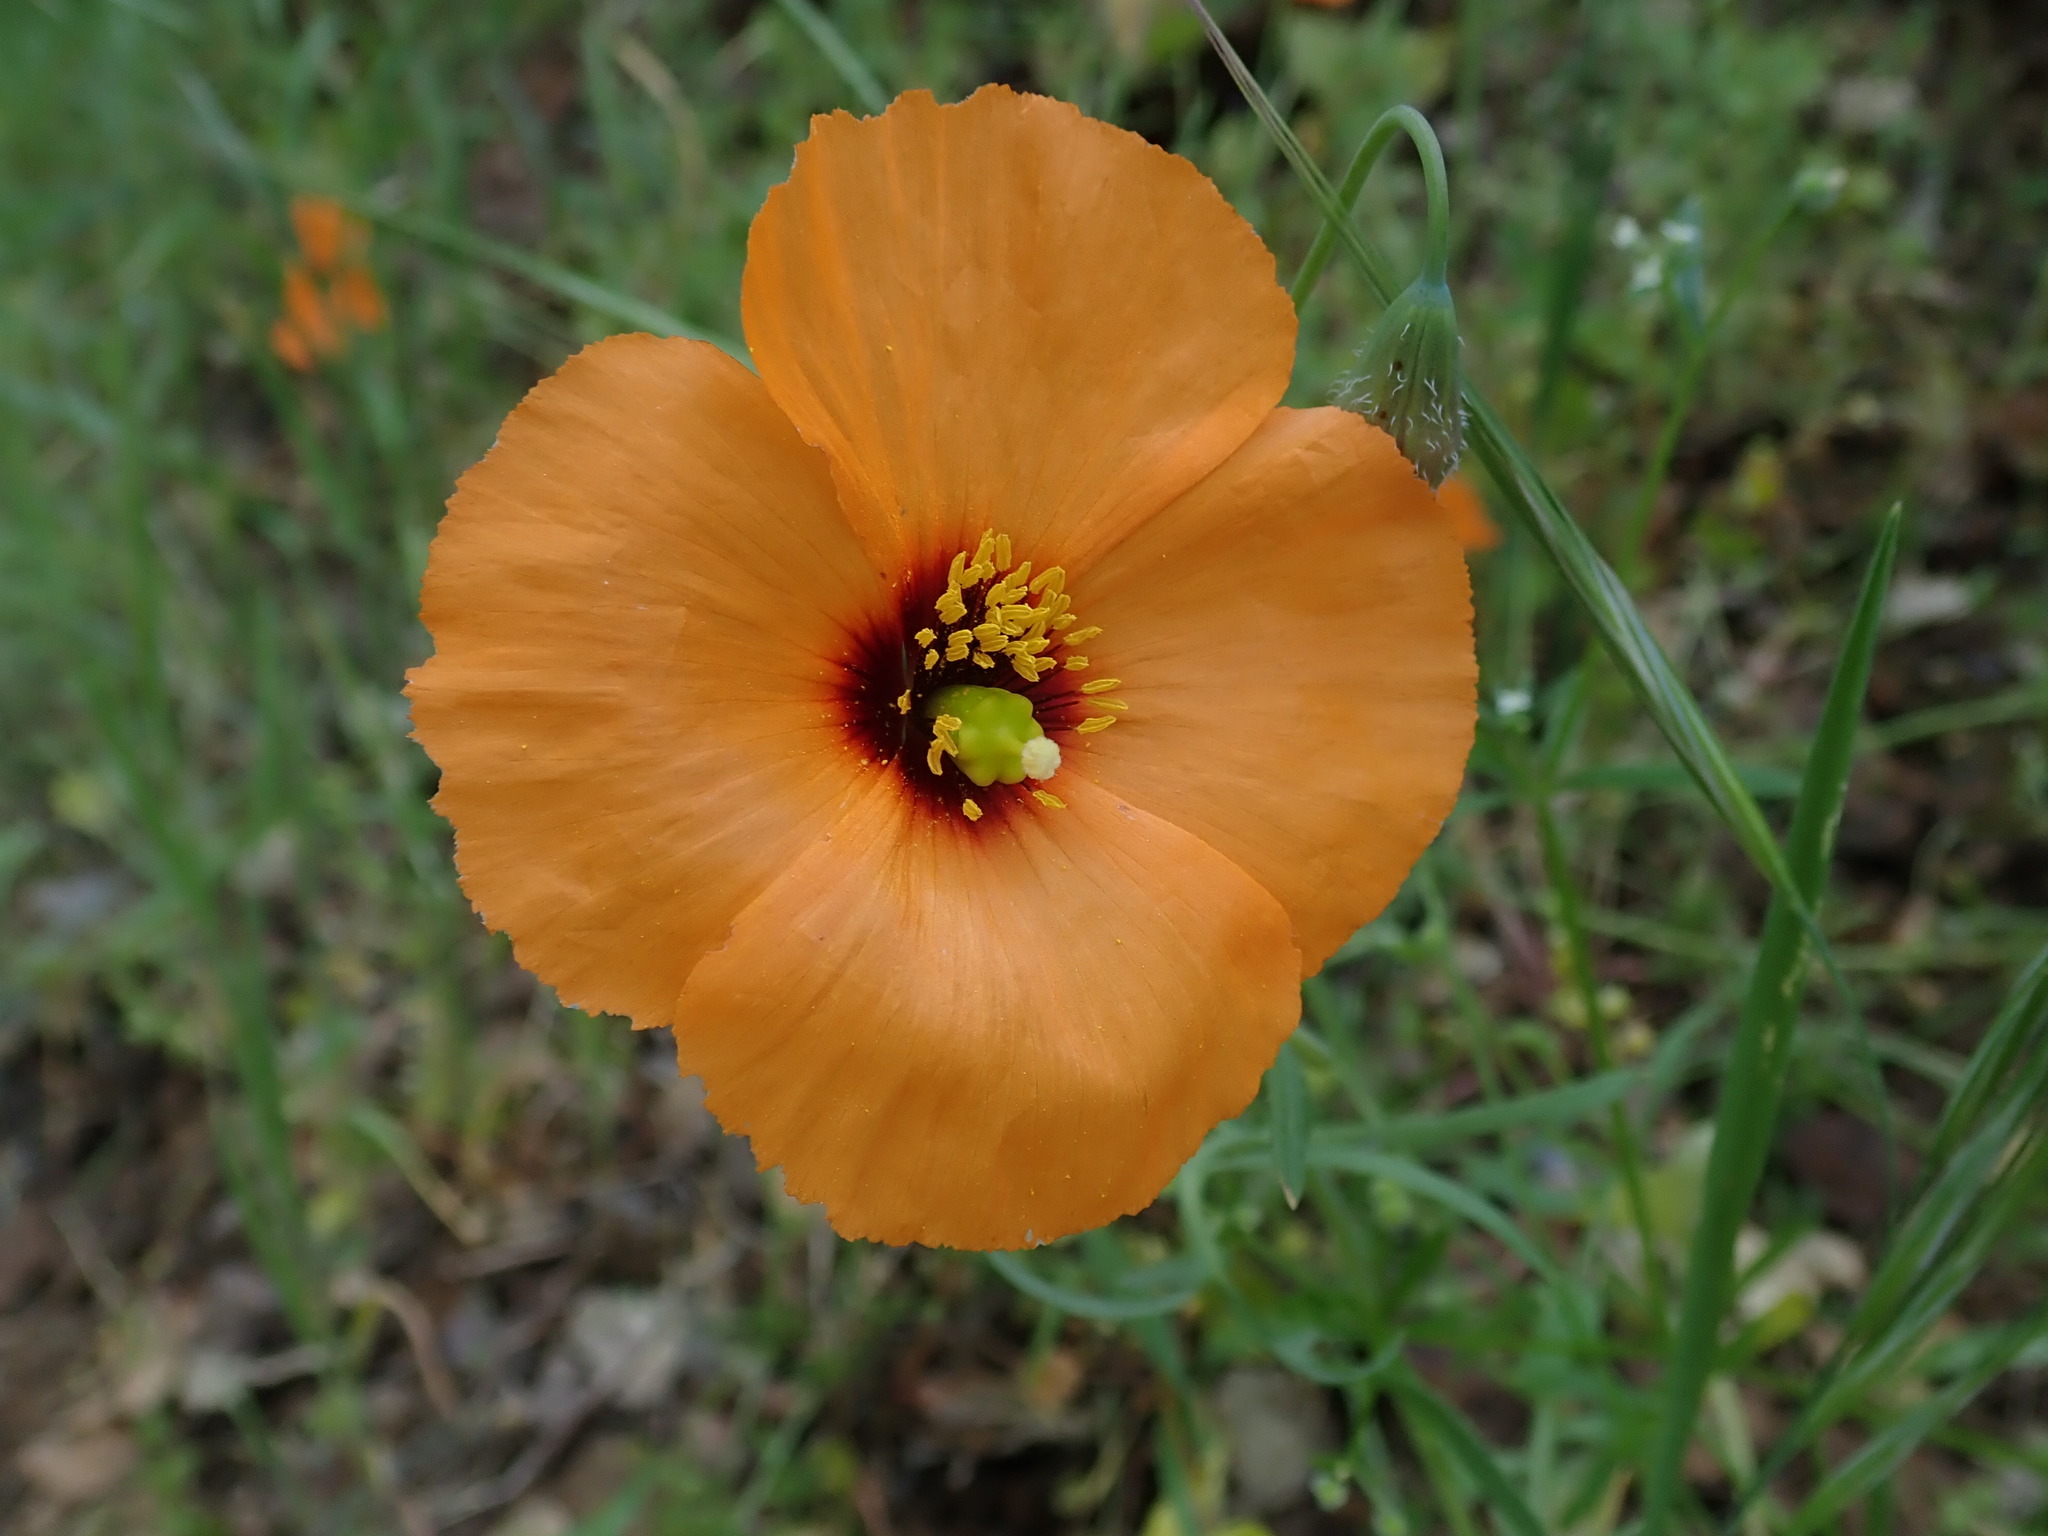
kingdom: Plantae
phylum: Tracheophyta
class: Magnoliopsida
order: Ranunculales
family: Papaveraceae
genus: Stylomecon
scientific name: Stylomecon heterophylla
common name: Flaming-poppy
